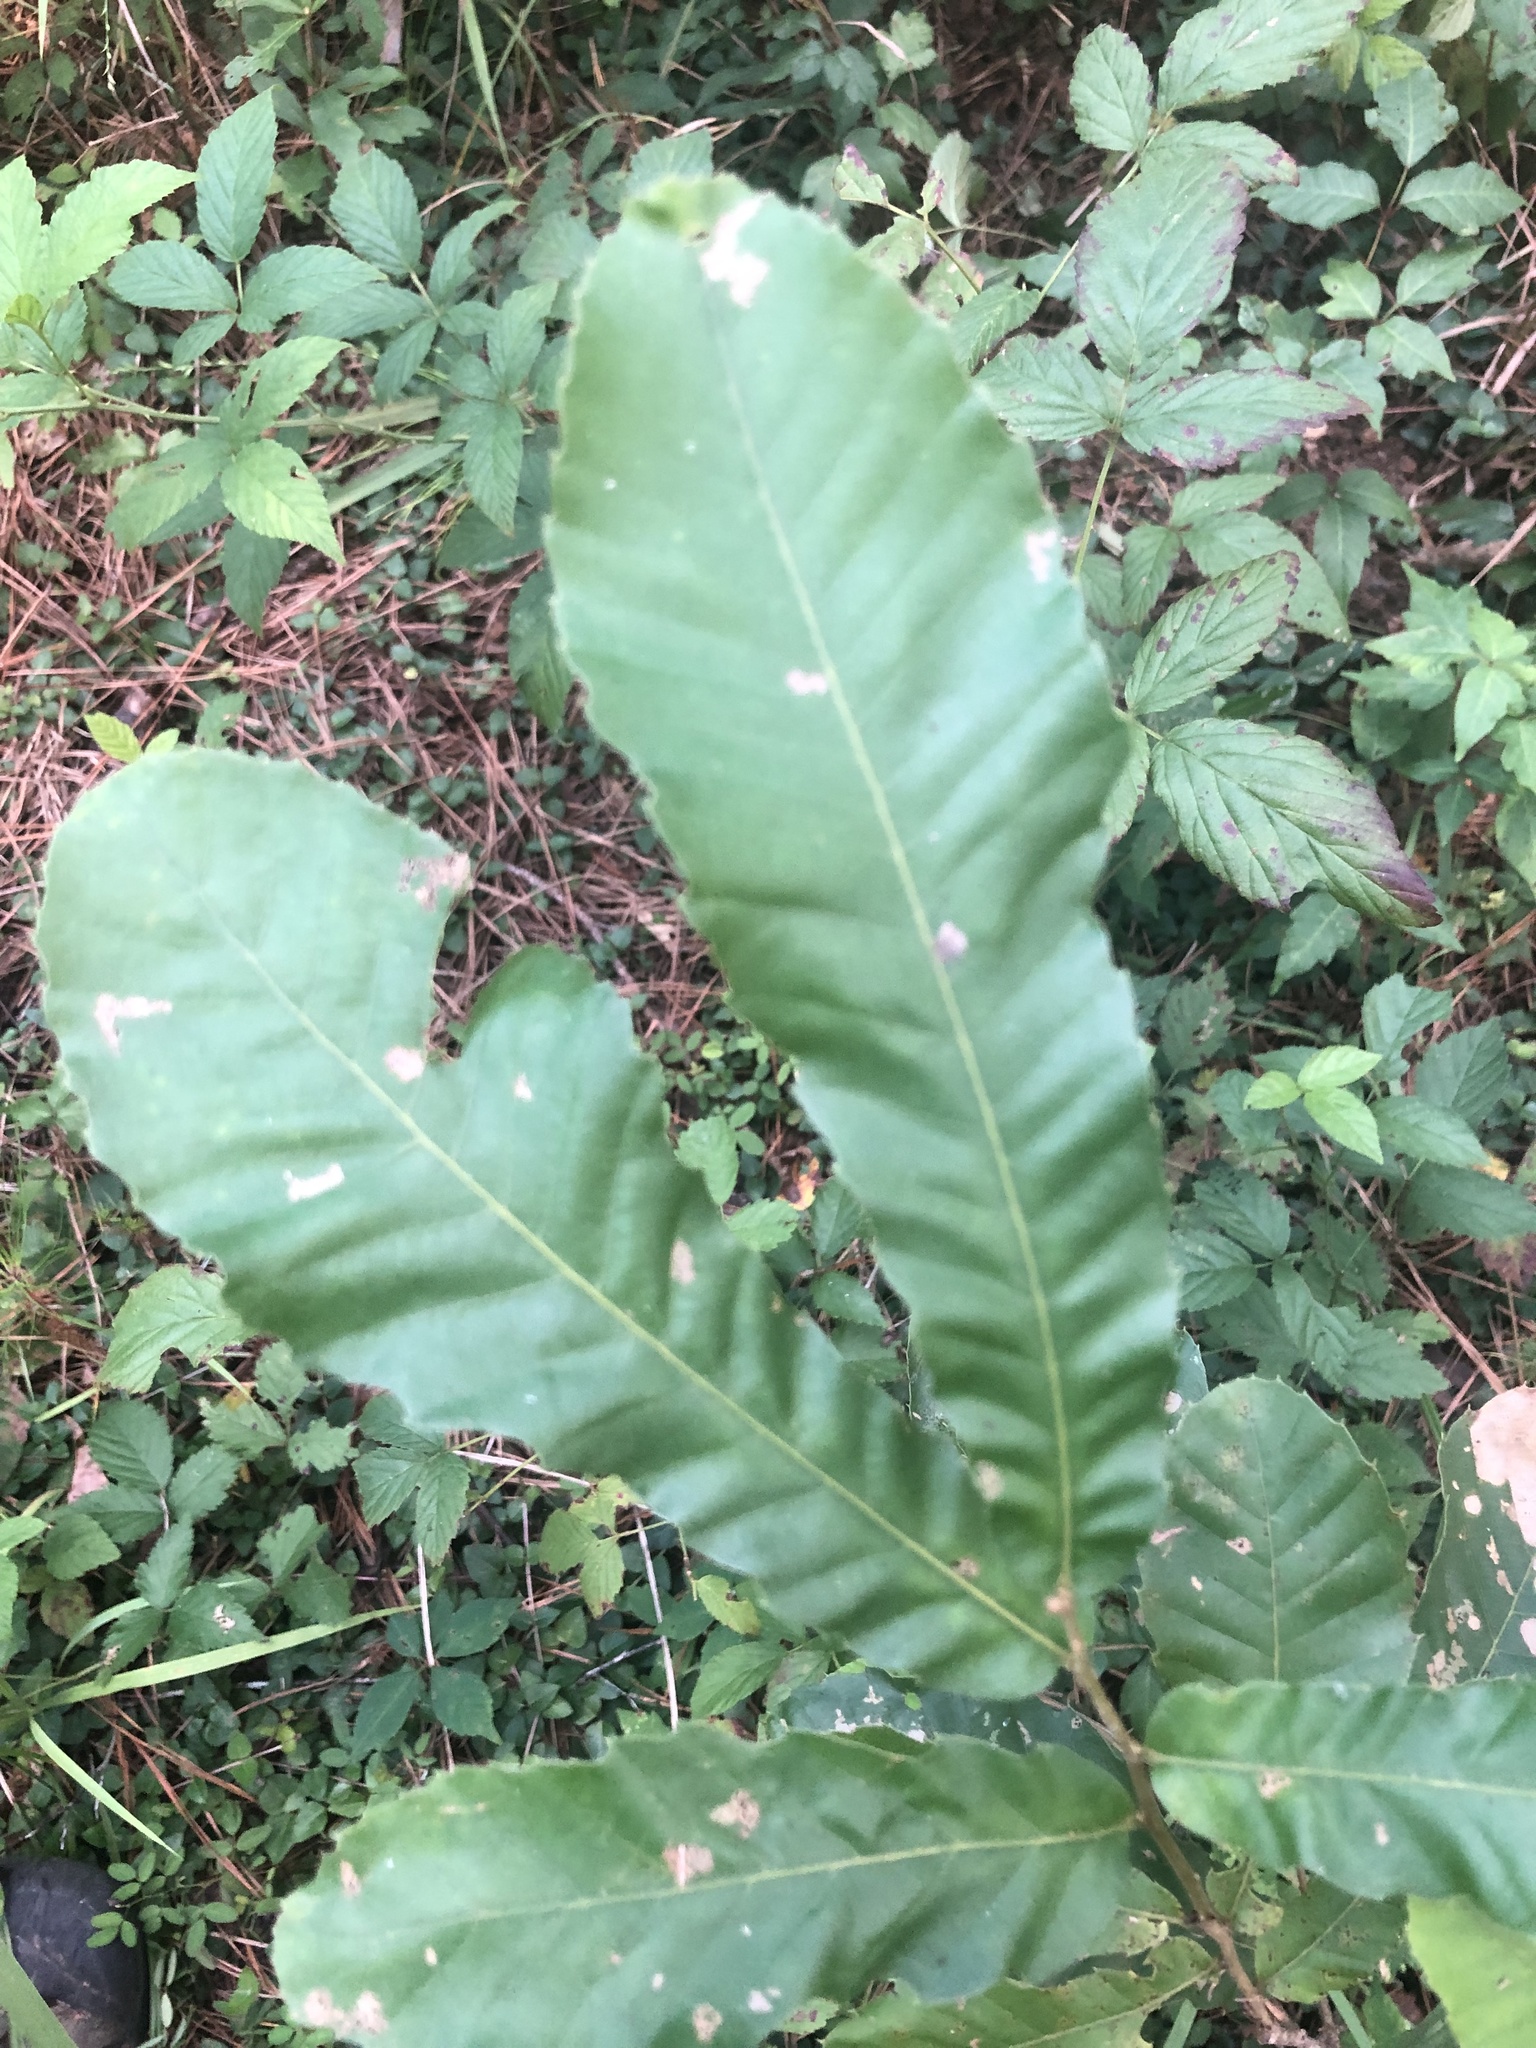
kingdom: Plantae
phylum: Tracheophyta
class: Magnoliopsida
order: Fagales
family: Fagaceae
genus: Quercus
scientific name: Quercus acutissima
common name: Sawtooth oak
